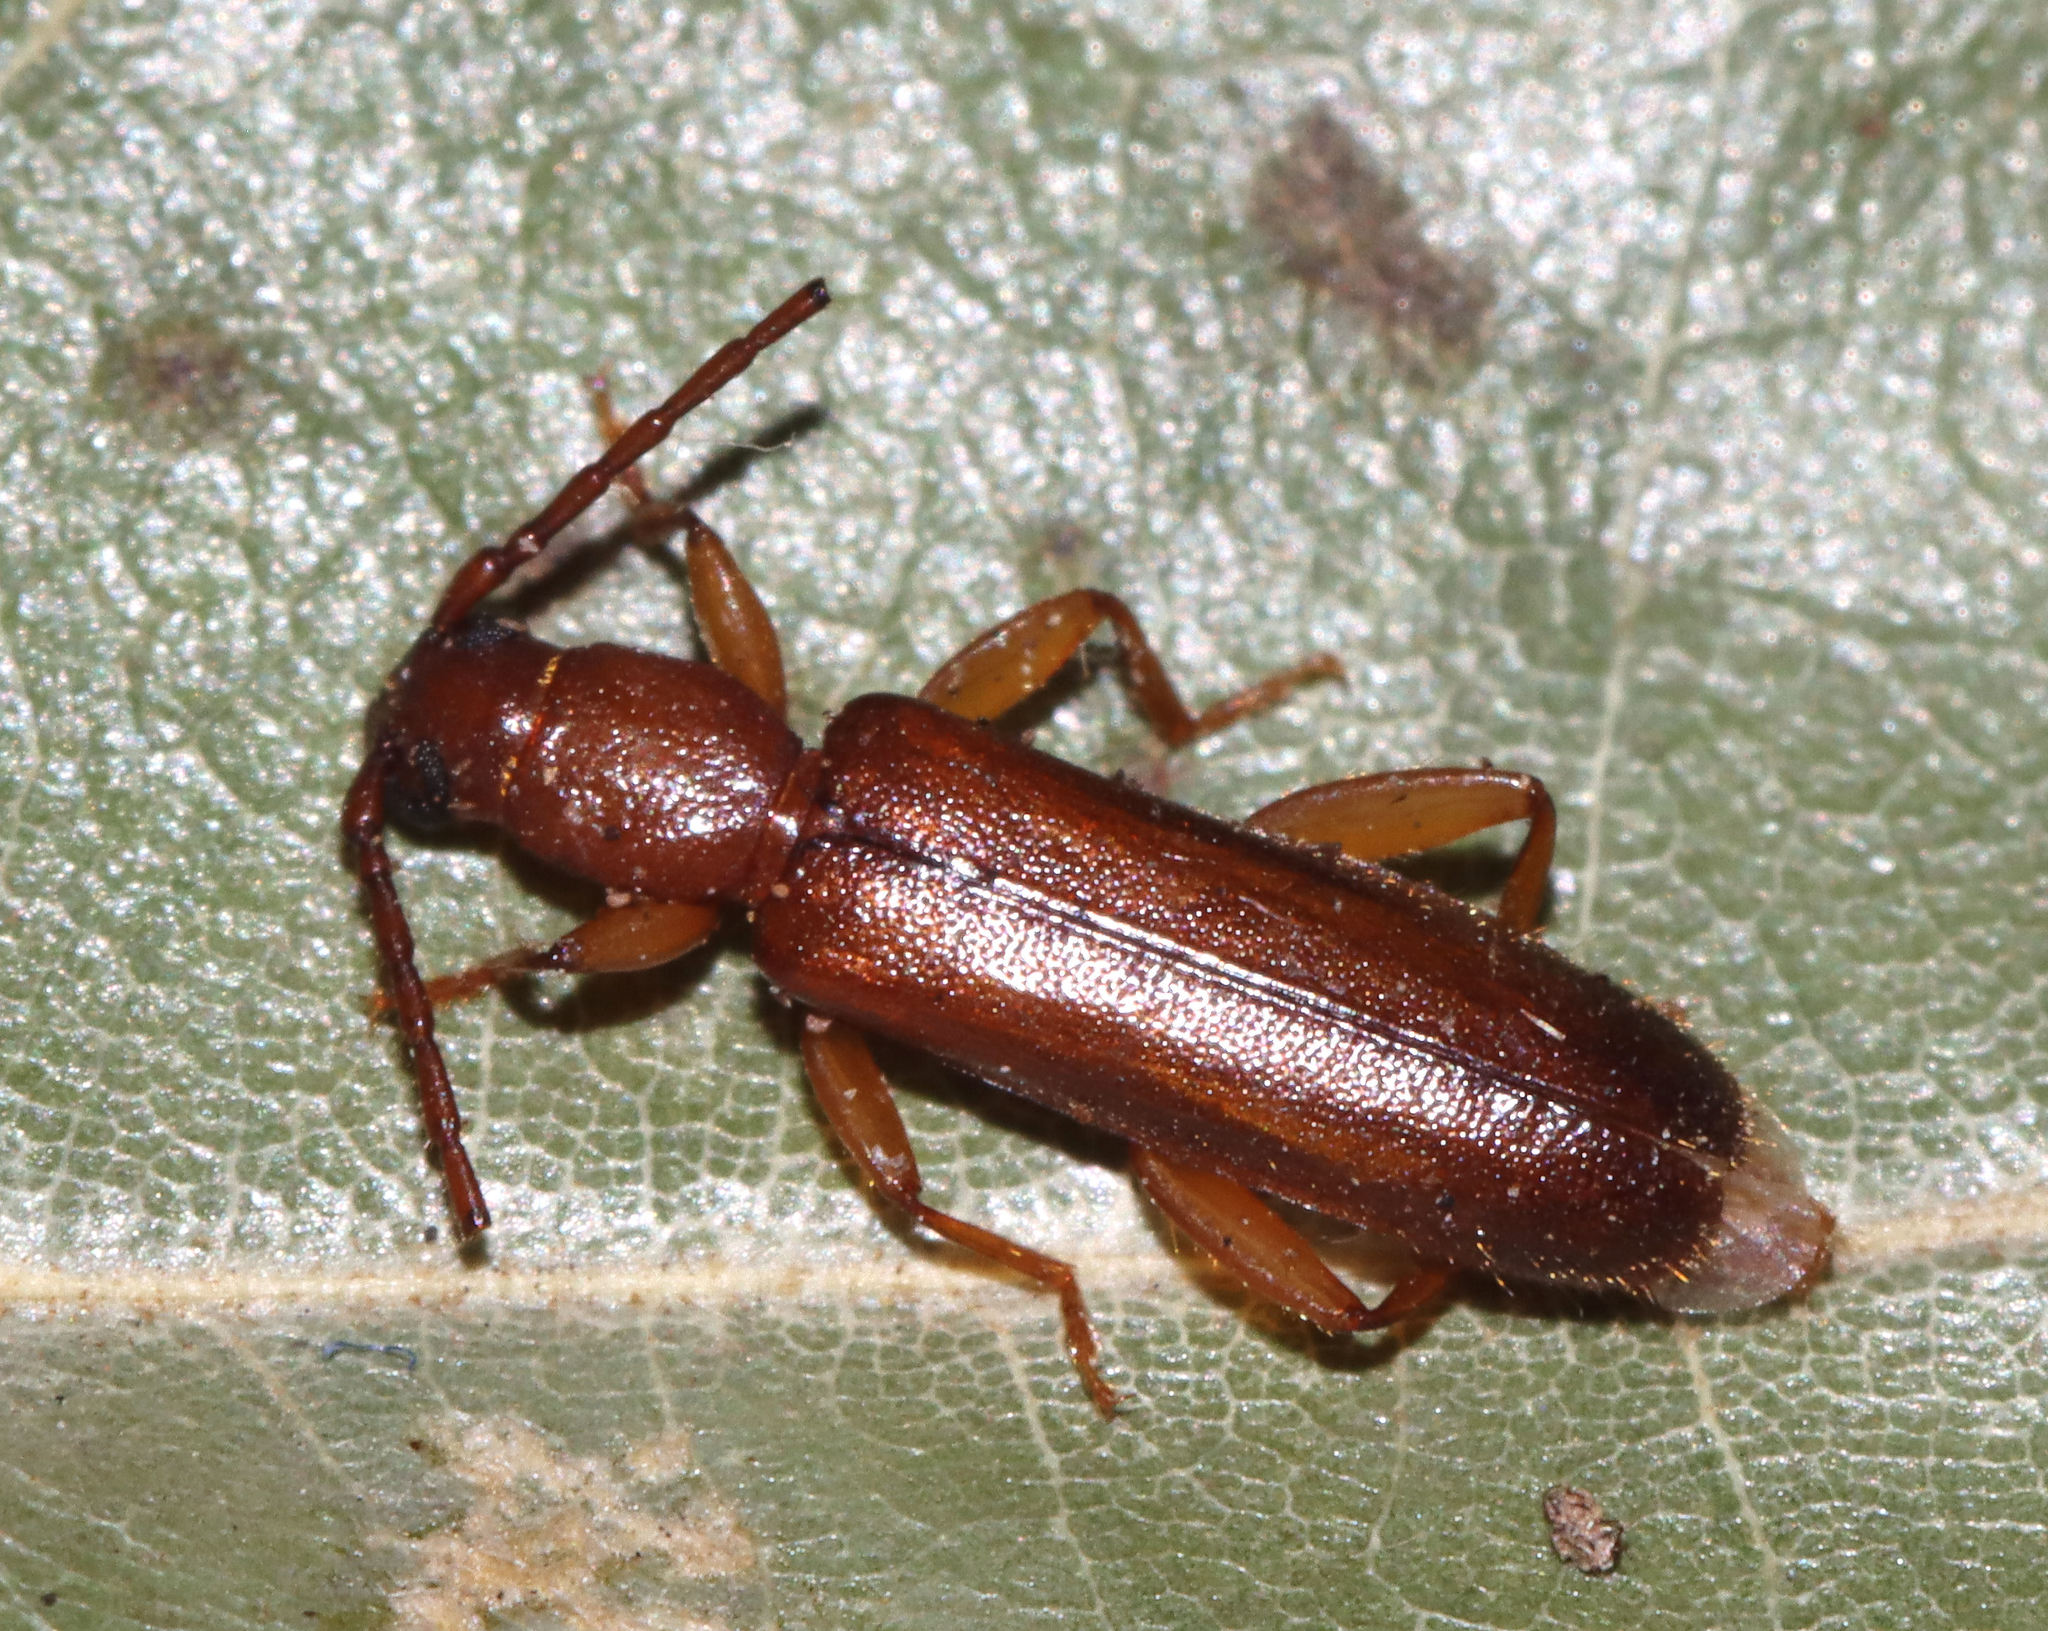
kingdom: Animalia
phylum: Arthropoda
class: Insecta
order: Coleoptera
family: Cerambycidae
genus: Smodicum
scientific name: Smodicum cucujiforme
